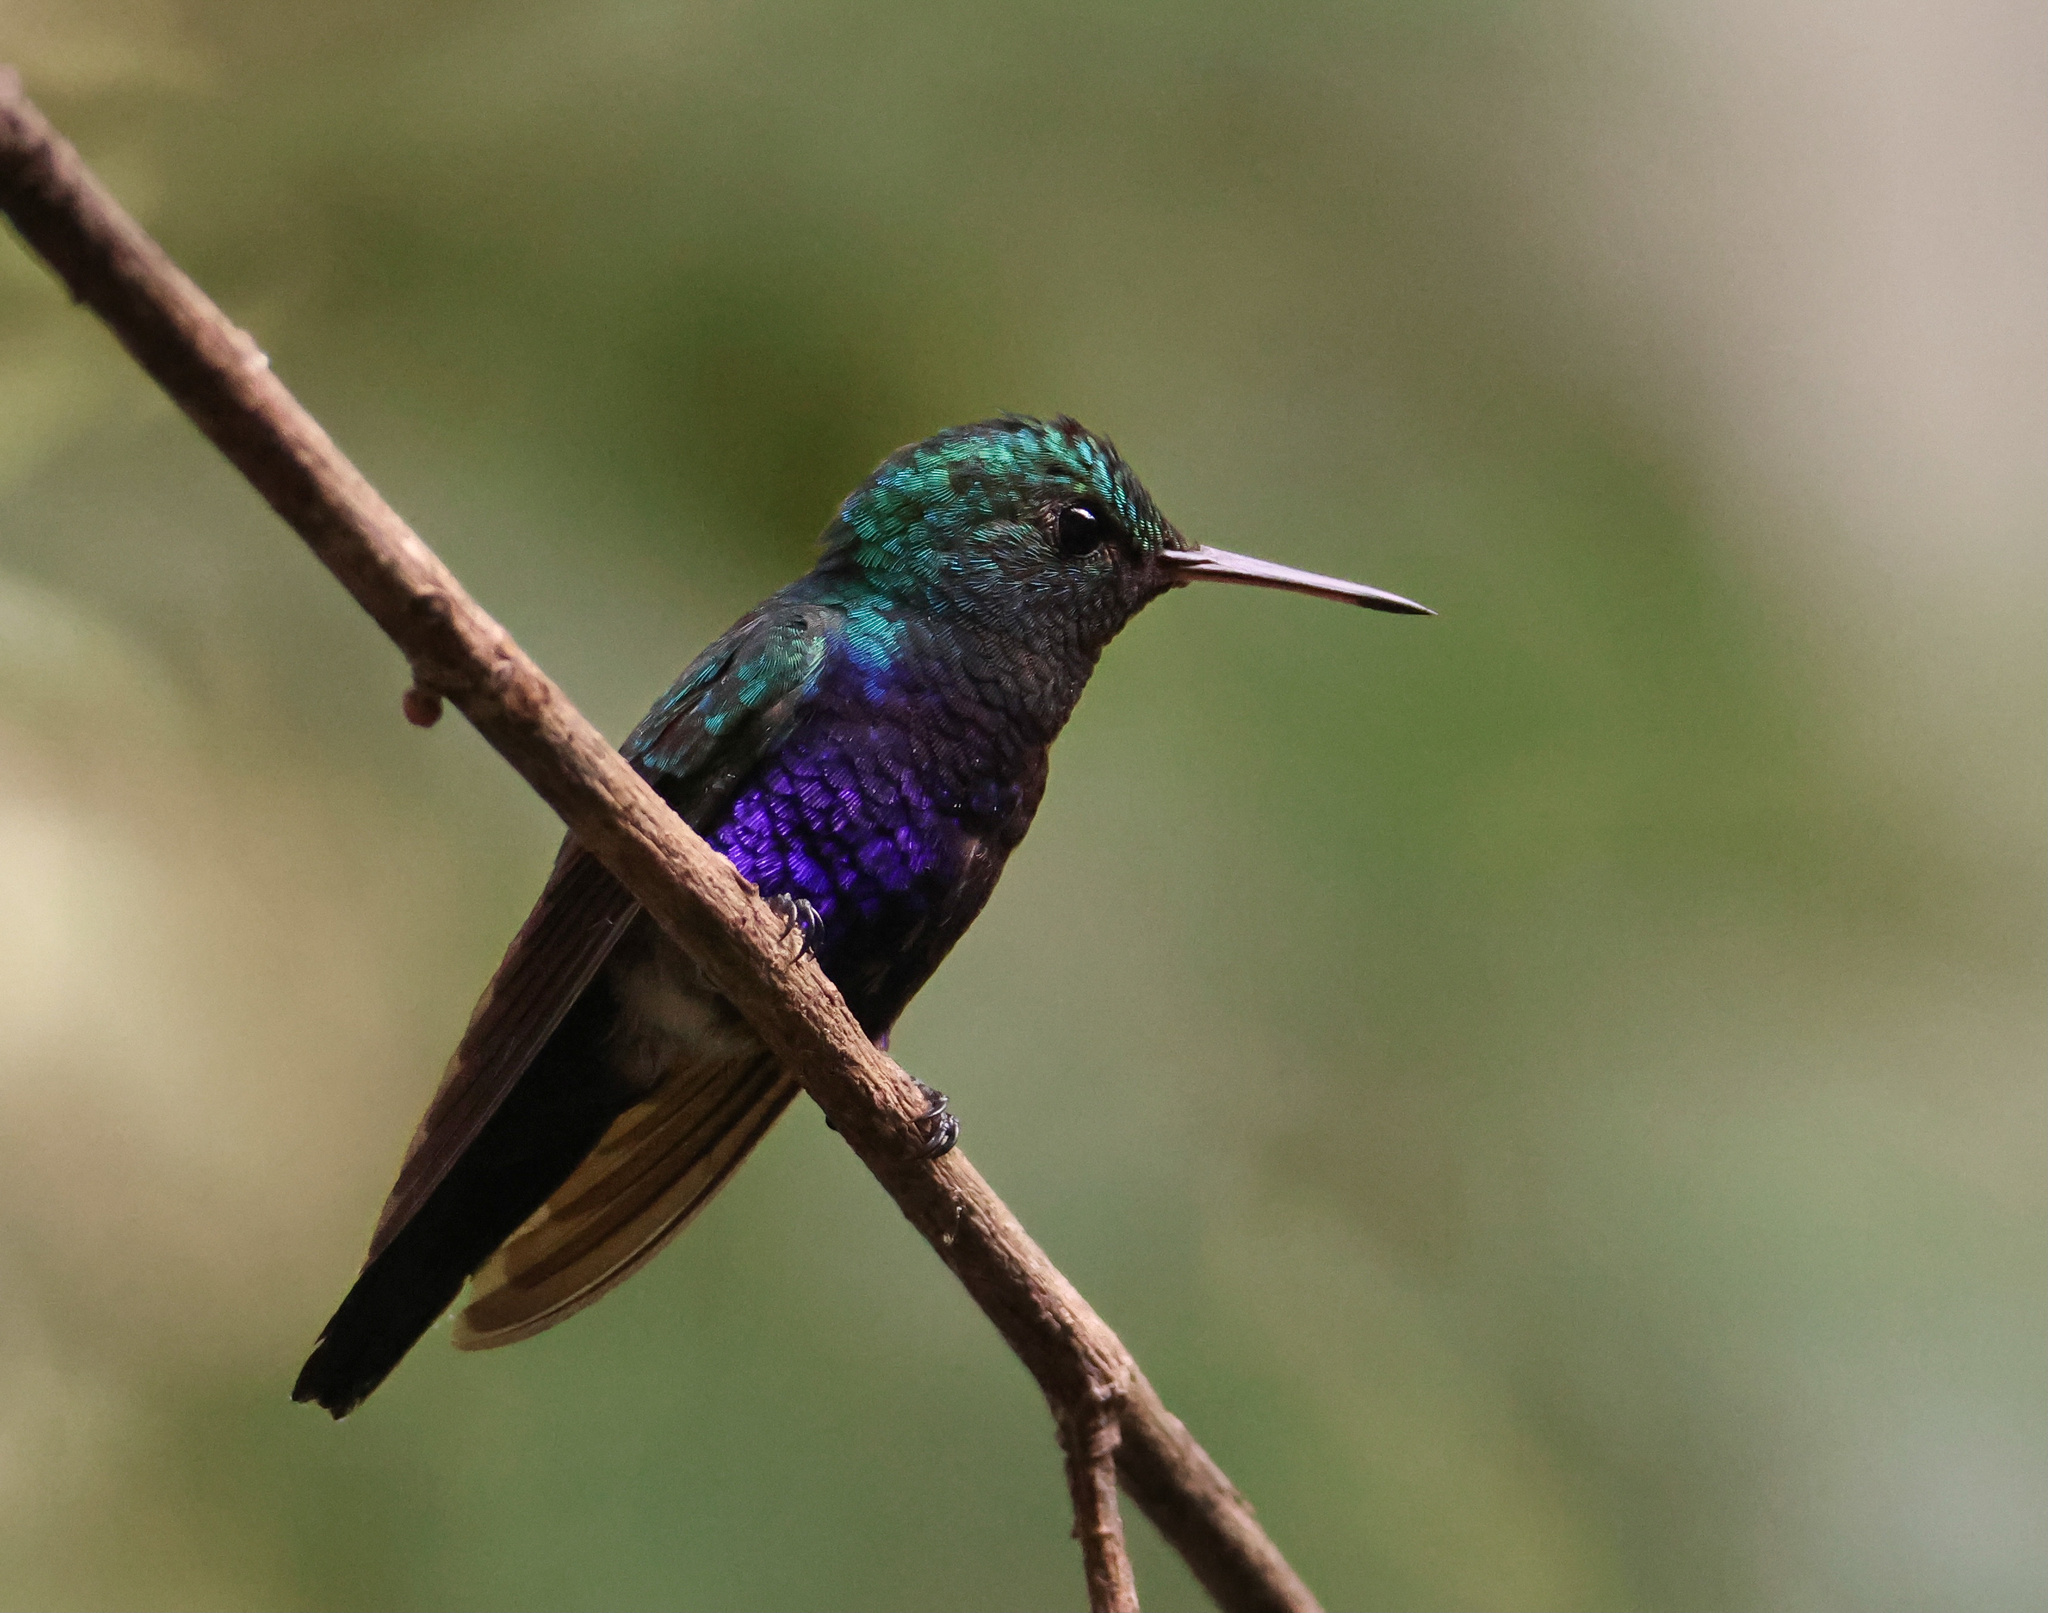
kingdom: Animalia
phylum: Chordata
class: Aves
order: Apodiformes
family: Trochilidae
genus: Chlorestes
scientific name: Chlorestes julie
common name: Violet-bellied hummingbird
